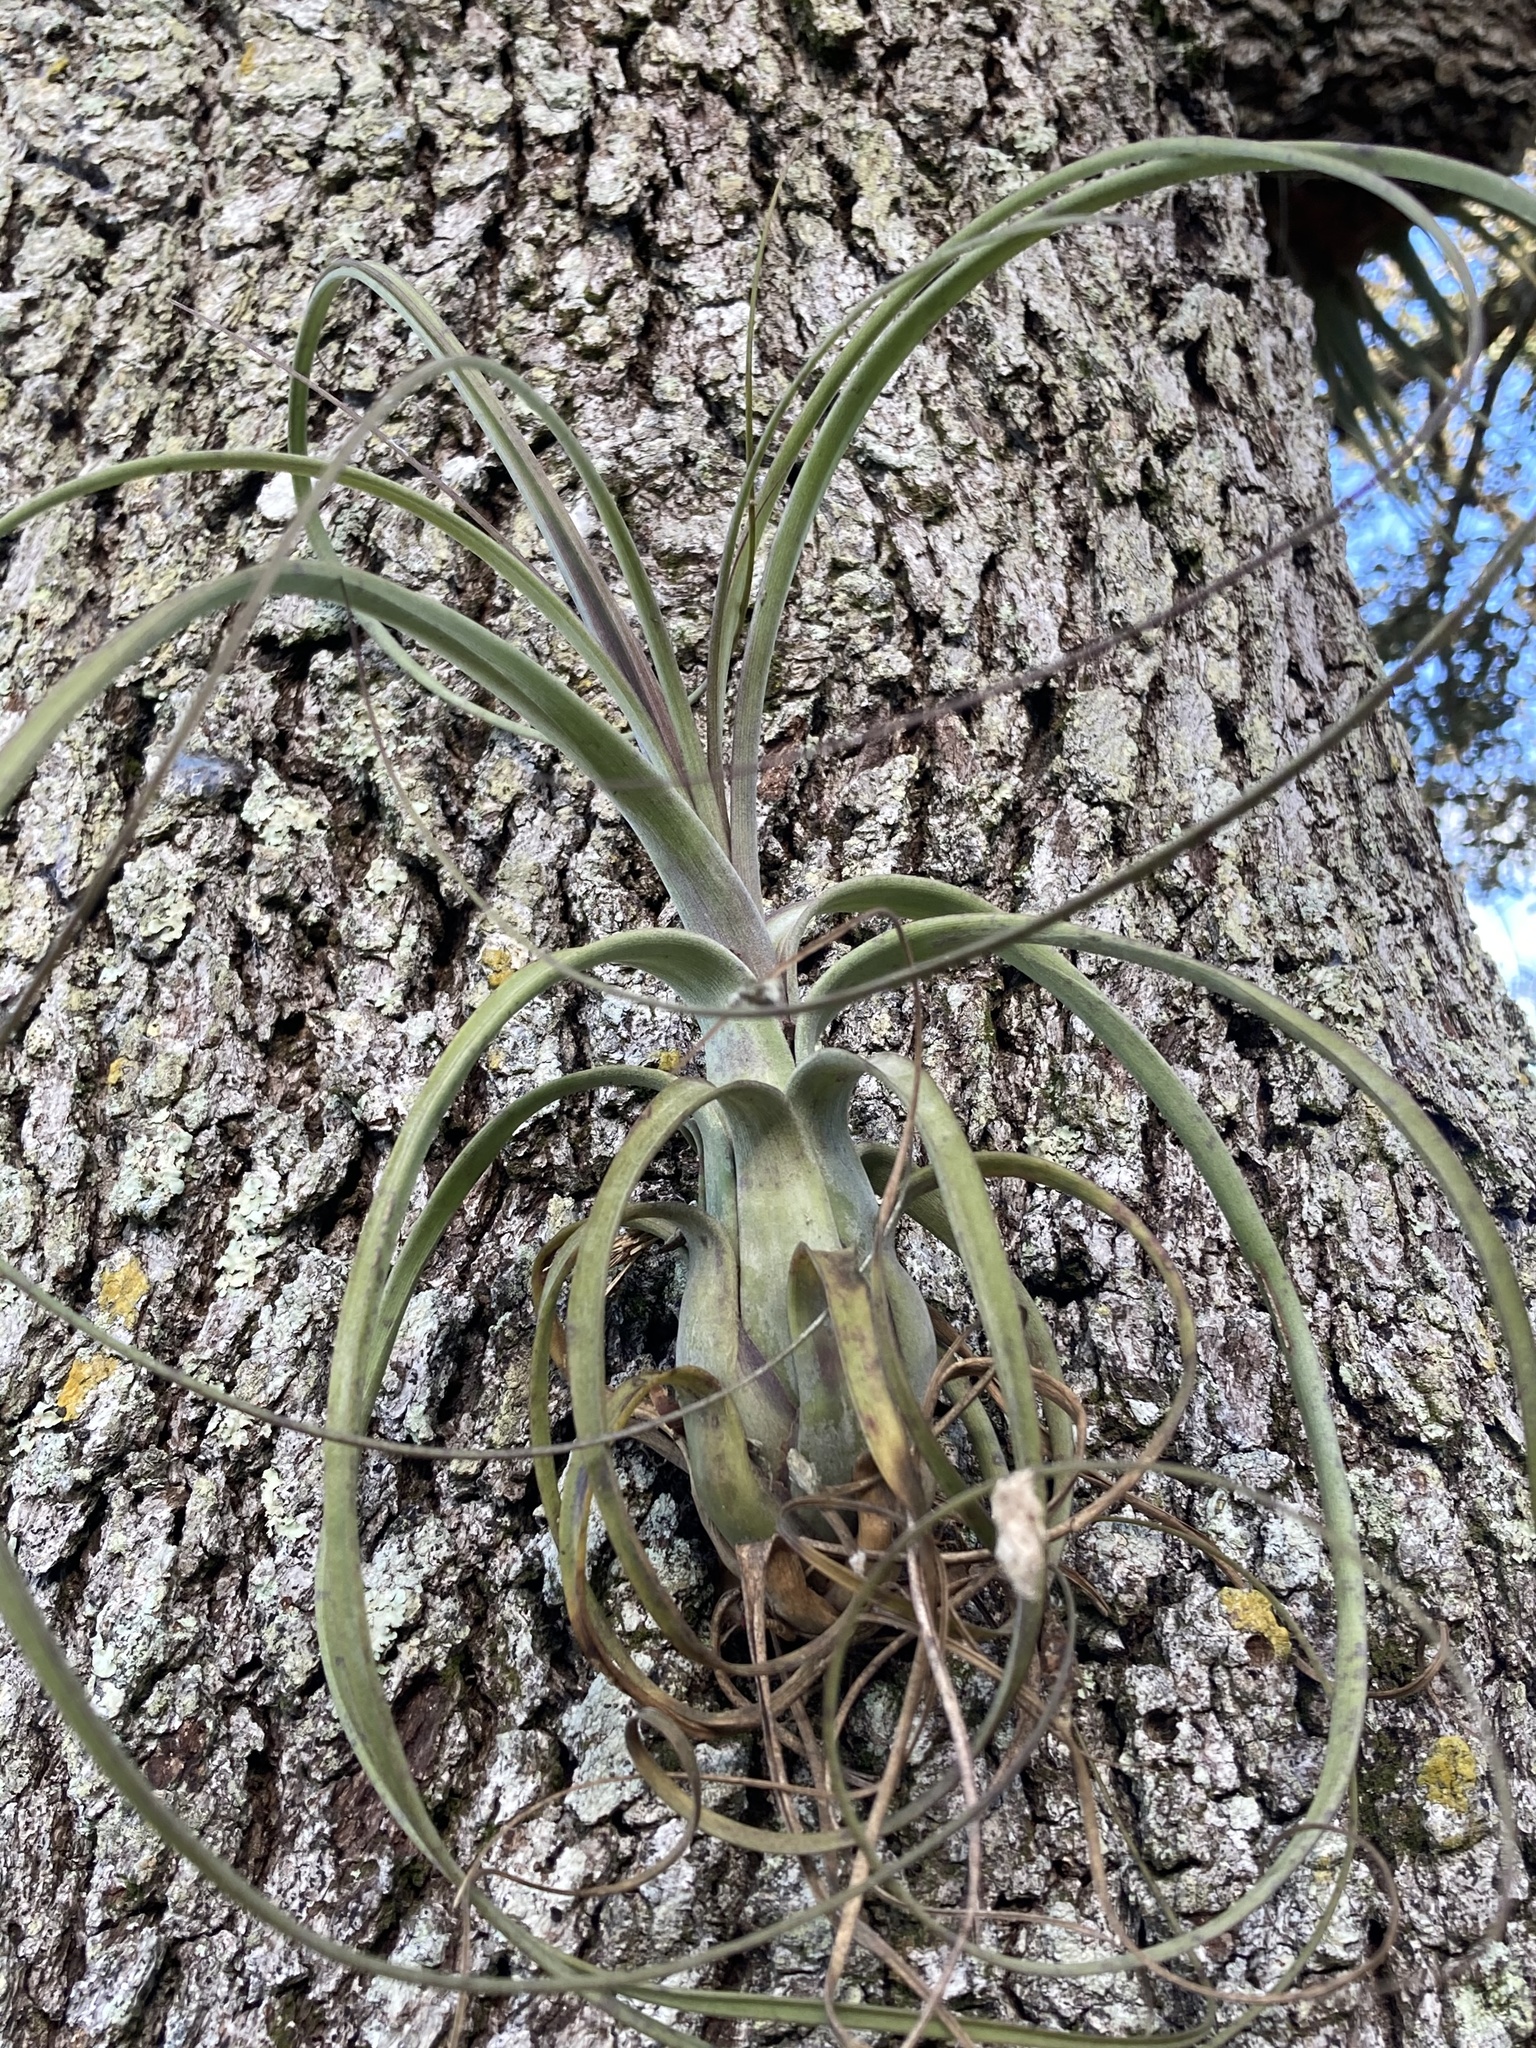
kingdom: Plantae
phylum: Tracheophyta
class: Liliopsida
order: Poales
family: Bromeliaceae
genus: Tillandsia
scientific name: Tillandsia balbisiana
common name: Northern needleleaf
